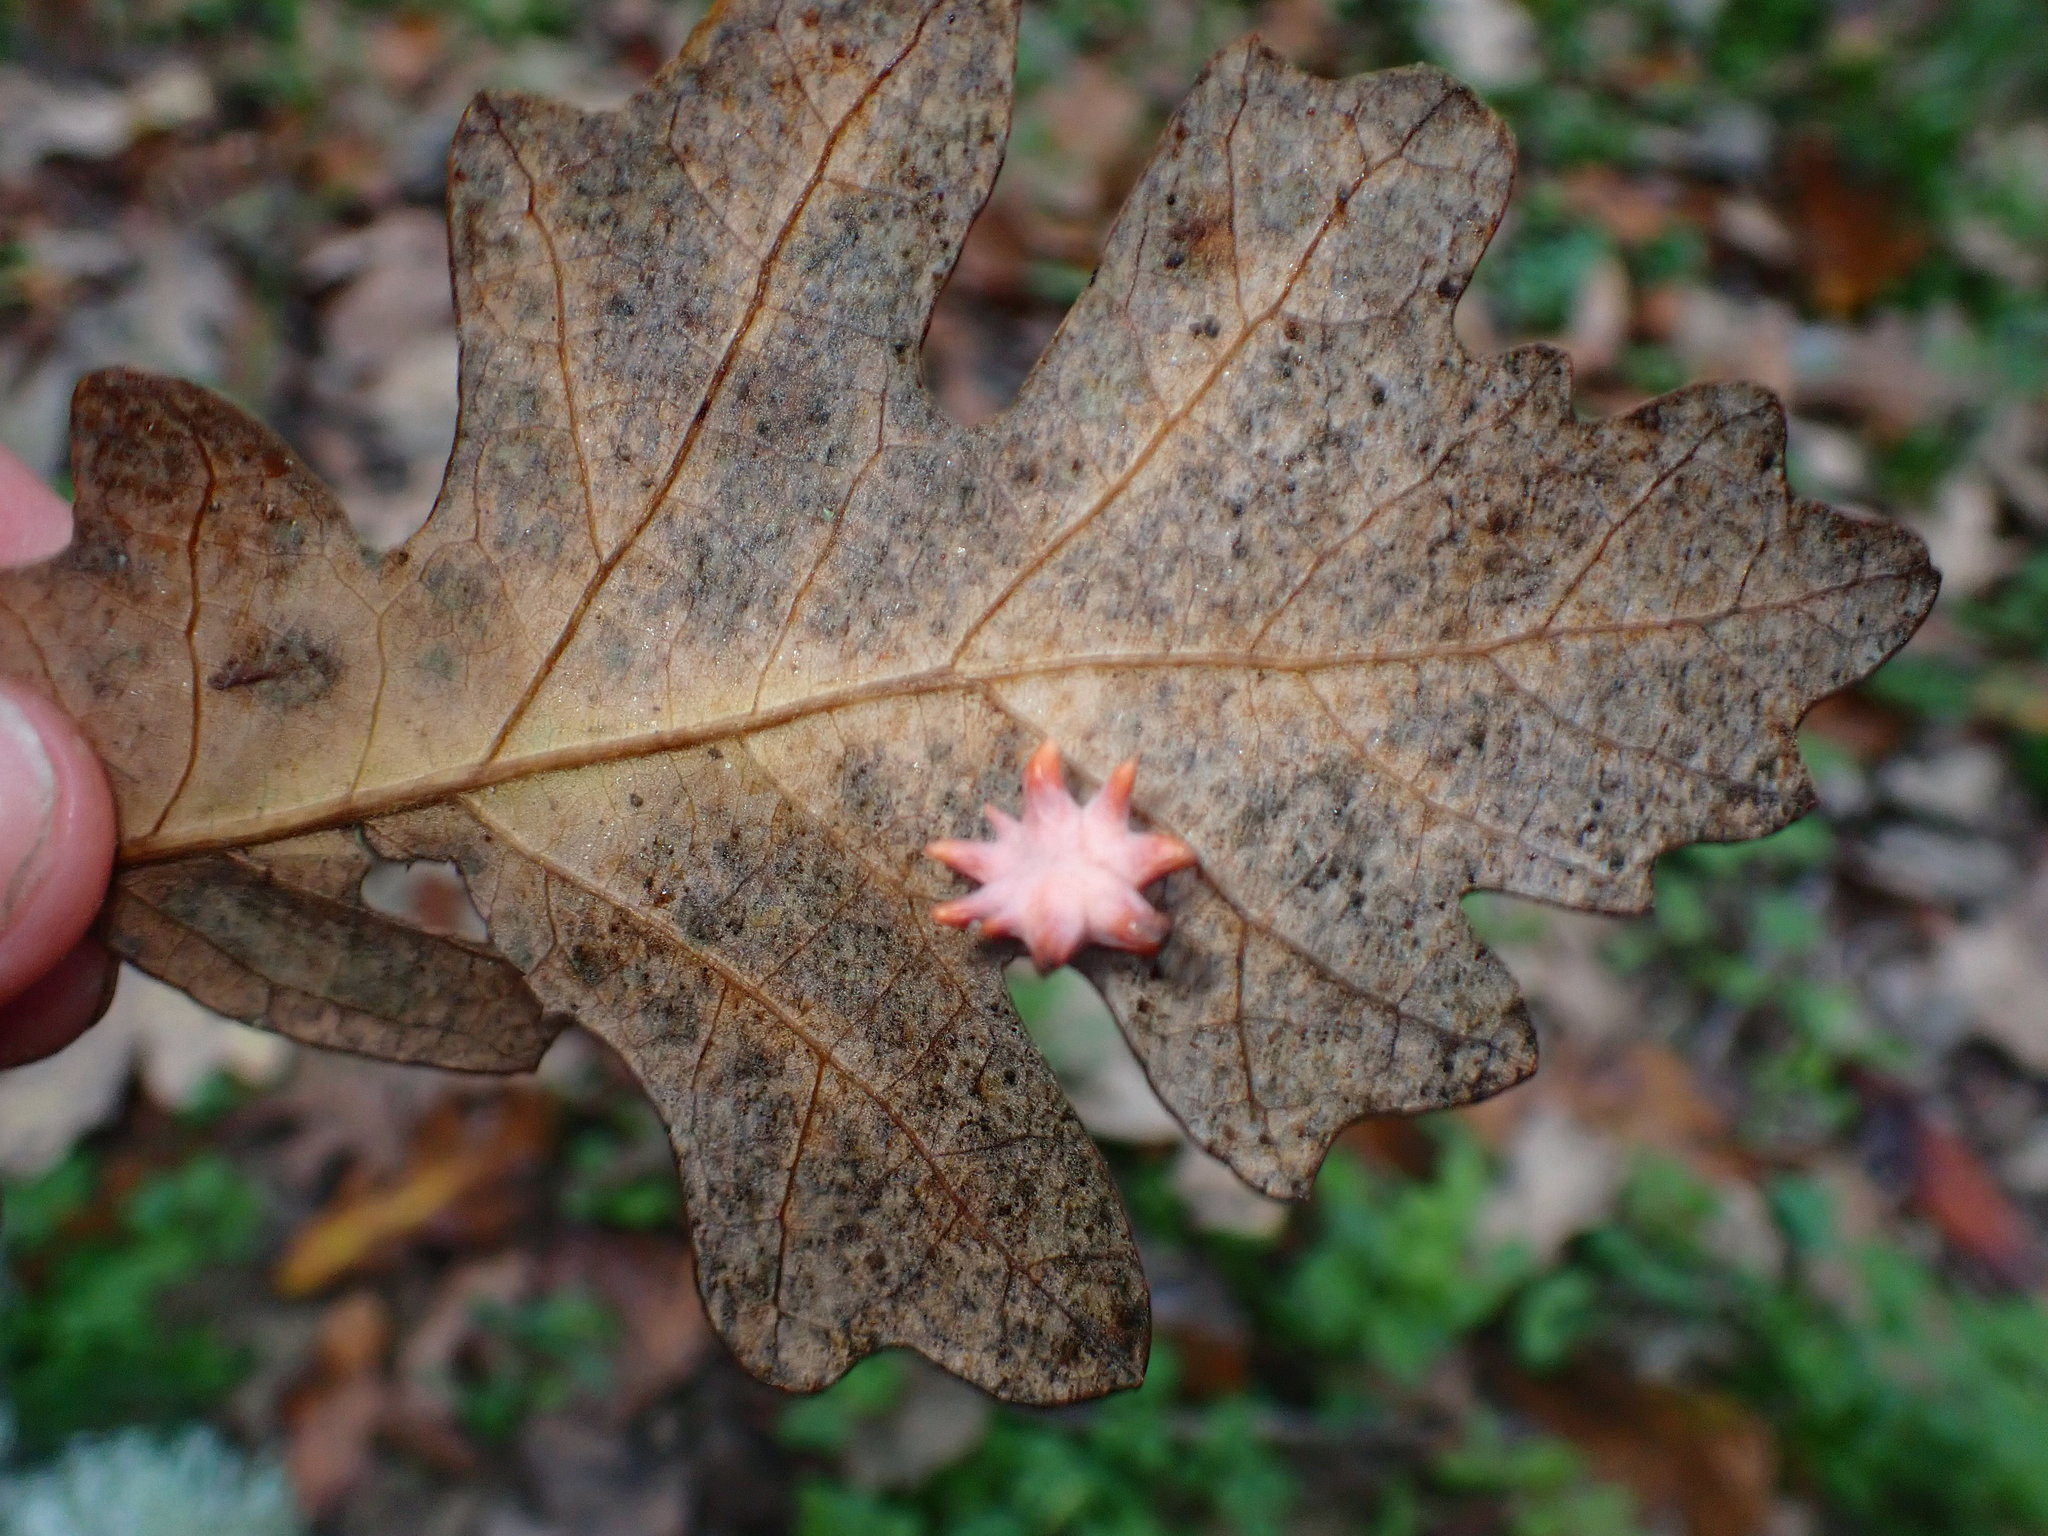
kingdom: Animalia
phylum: Arthropoda
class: Insecta
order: Hymenoptera
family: Cynipidae
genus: Cynips
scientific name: Cynips douglasi
